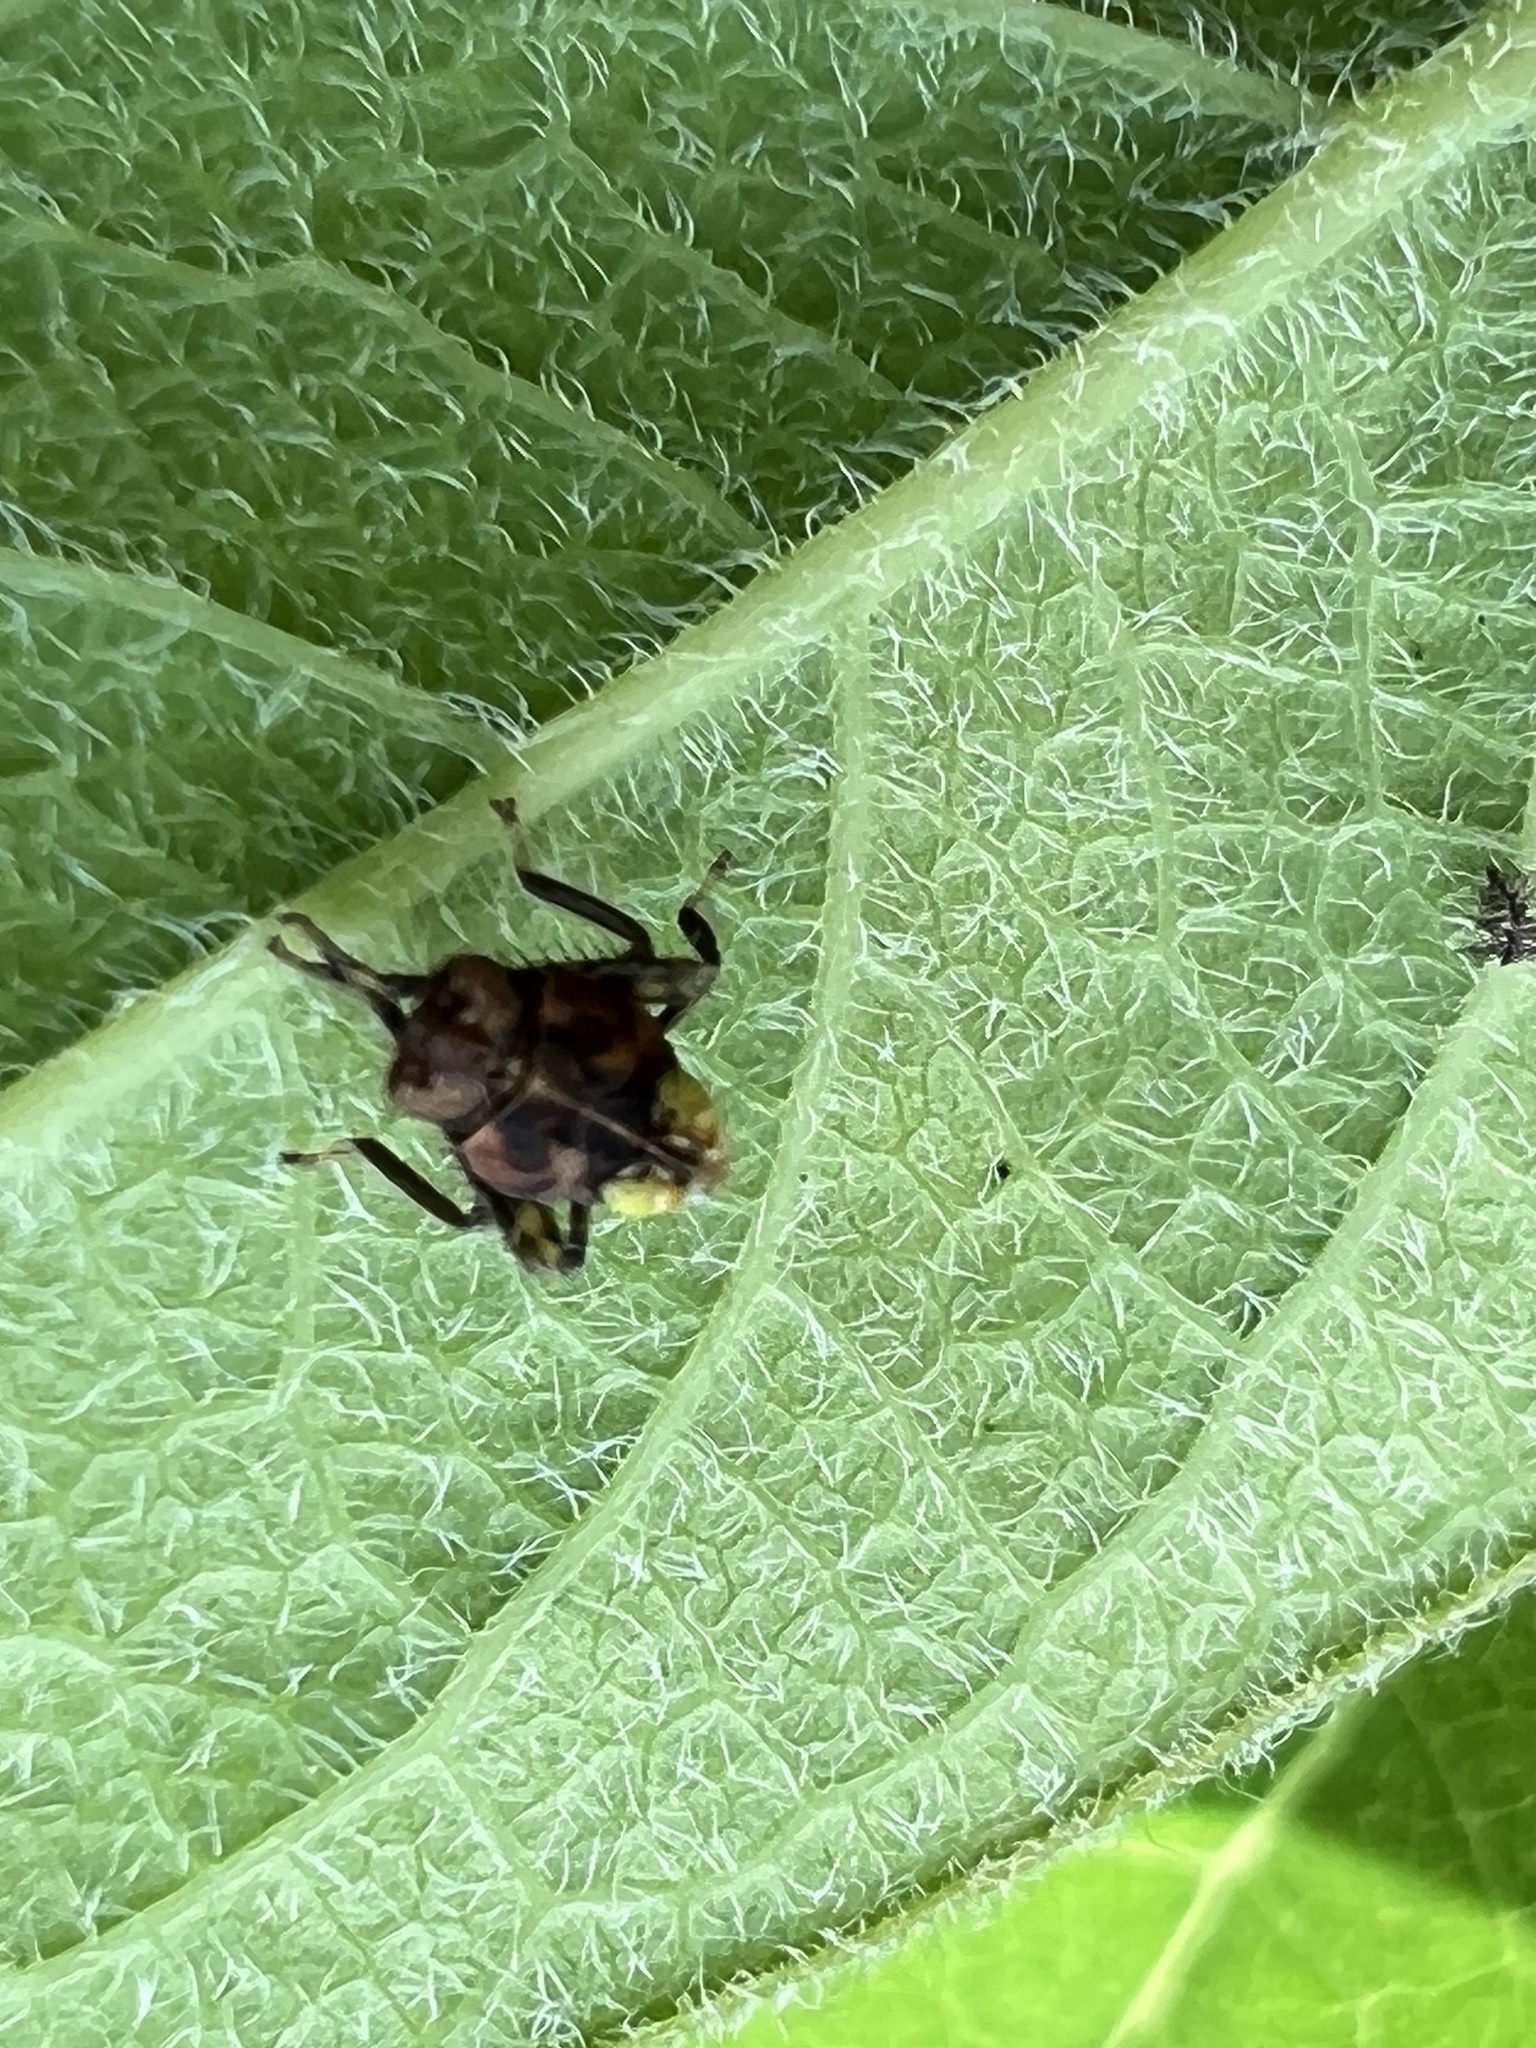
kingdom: Animalia
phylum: Arthropoda
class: Insecta
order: Hemiptera
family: Cicadellidae
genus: Jikradia
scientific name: Jikradia olitoria
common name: Coppery leafhopper
